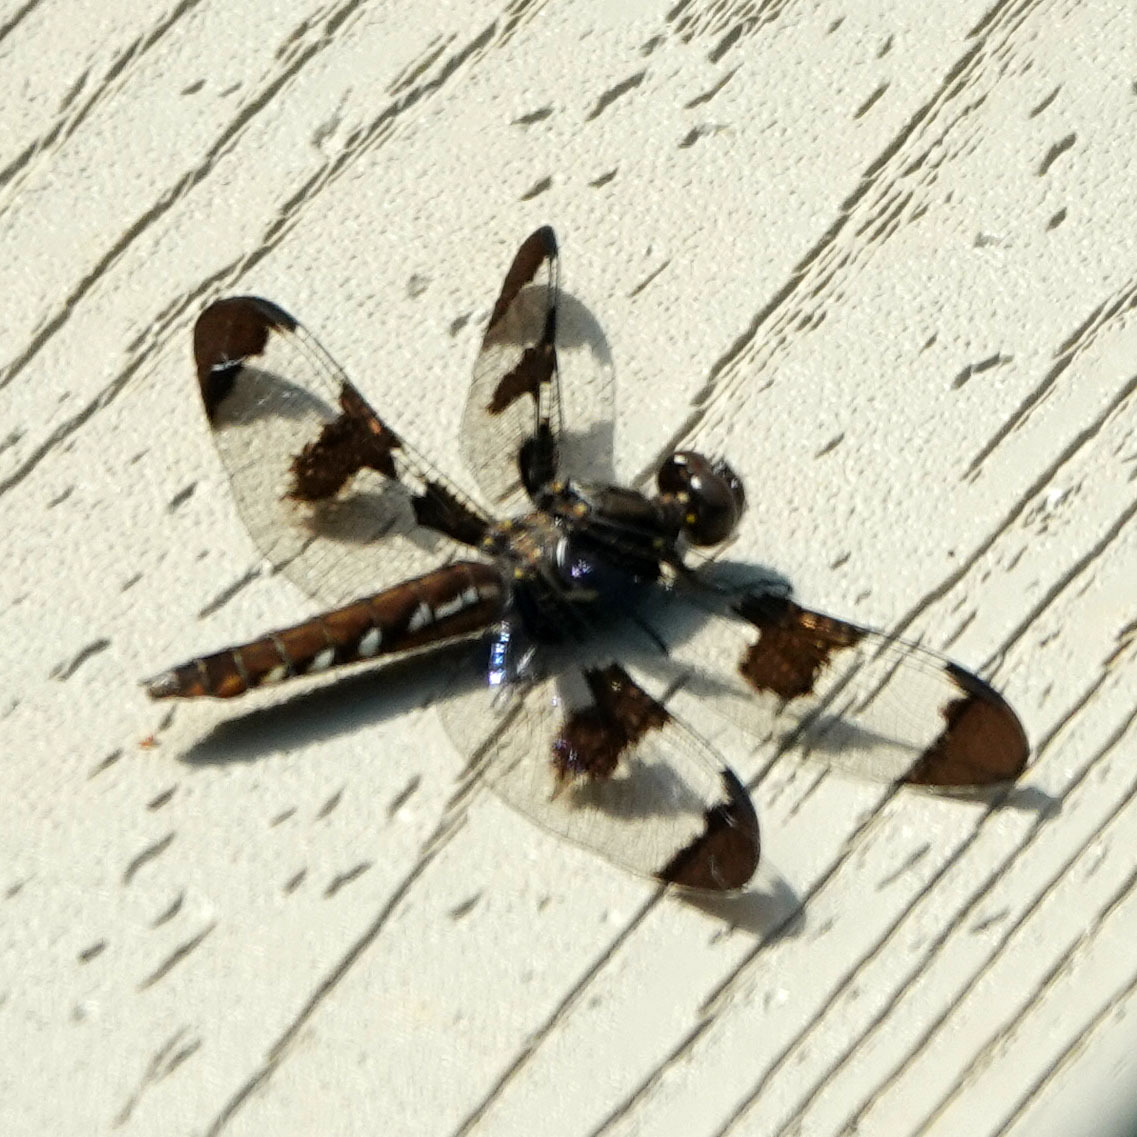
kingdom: Animalia
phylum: Arthropoda
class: Insecta
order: Odonata
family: Libellulidae
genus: Plathemis
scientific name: Plathemis lydia
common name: Common whitetail
